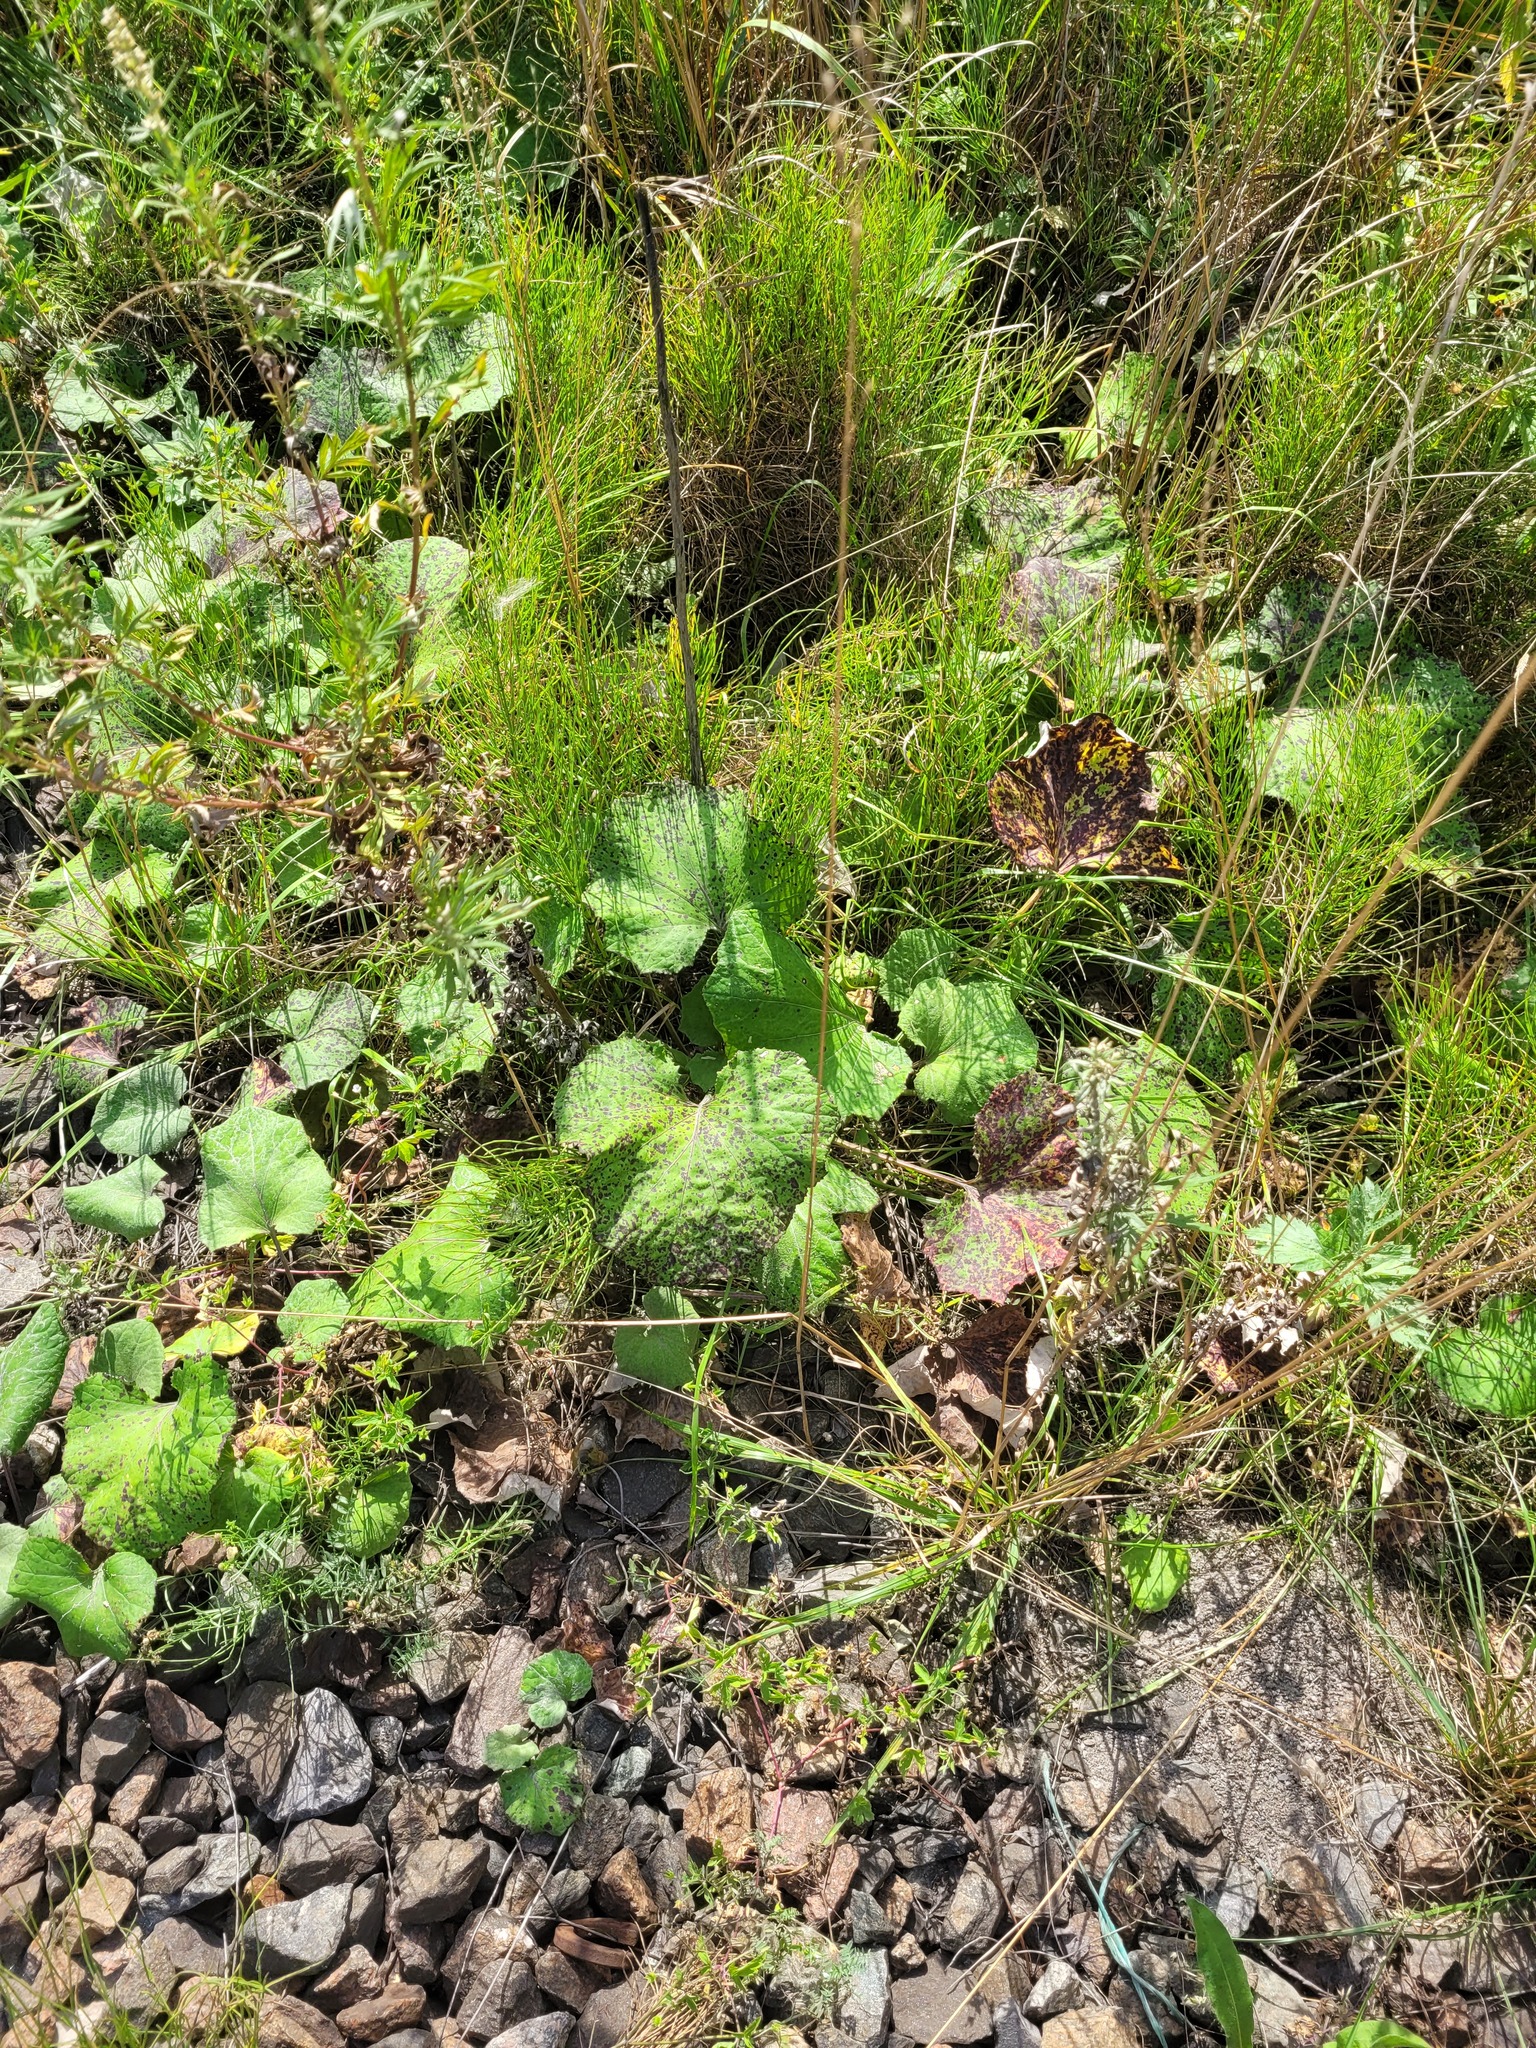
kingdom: Plantae
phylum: Tracheophyta
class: Magnoliopsida
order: Asterales
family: Asteraceae
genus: Tussilago
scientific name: Tussilago farfara
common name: Coltsfoot
